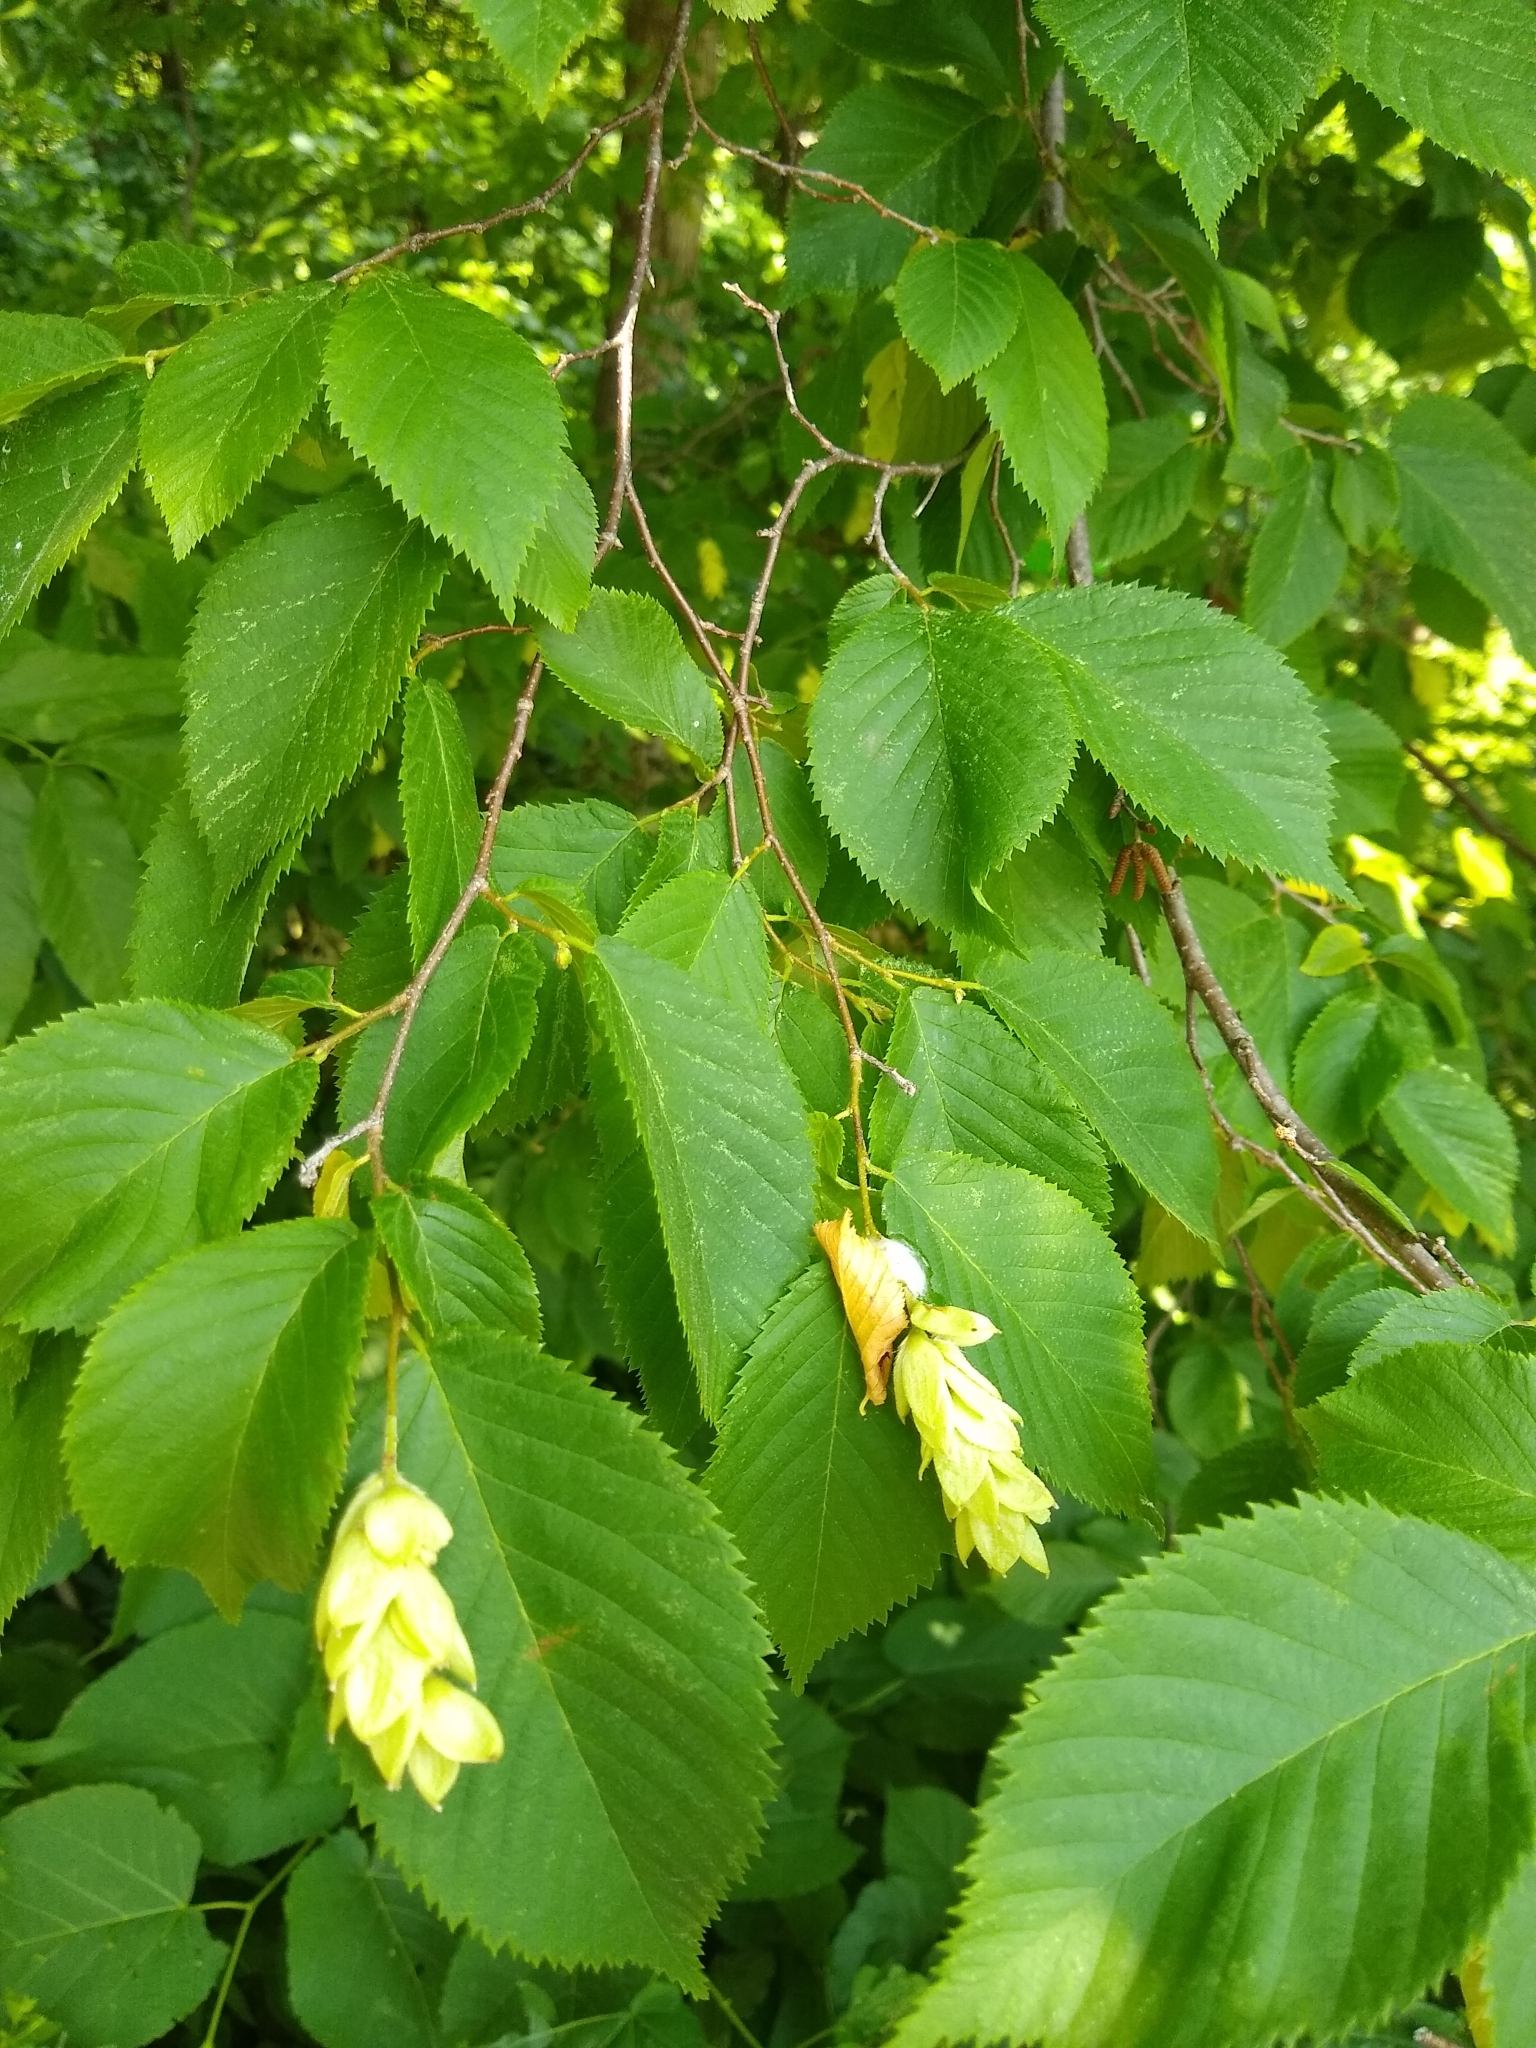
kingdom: Plantae
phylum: Tracheophyta
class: Magnoliopsida
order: Fagales
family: Betulaceae
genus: Ostrya
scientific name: Ostrya virginiana
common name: Ironwood
